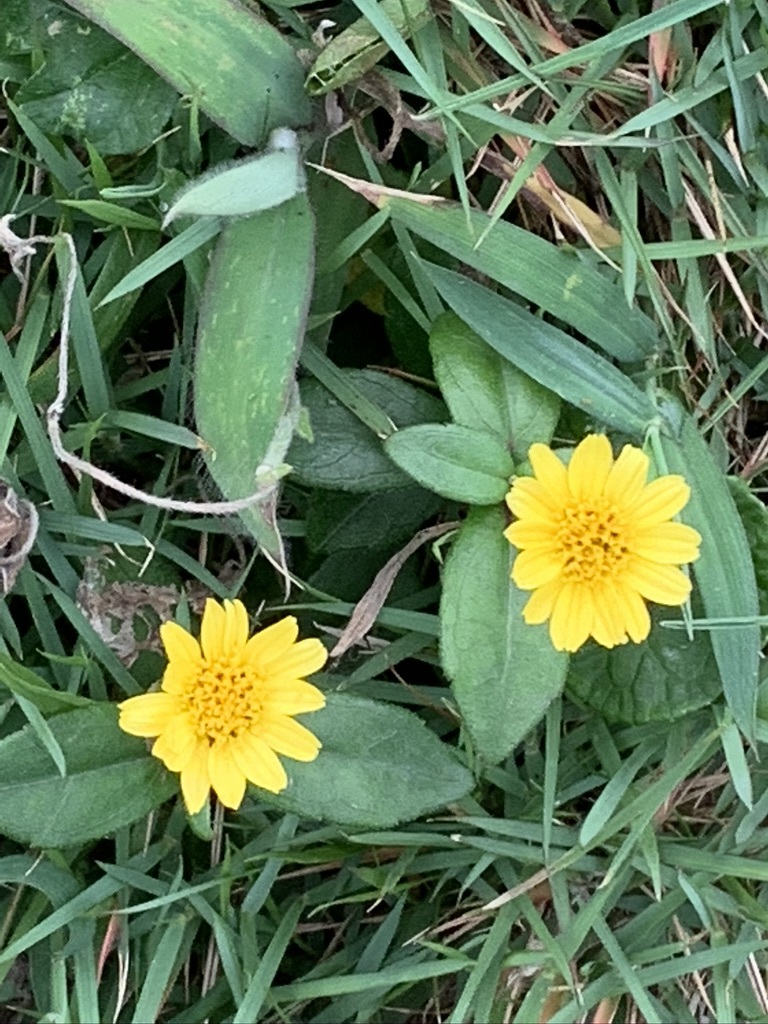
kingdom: Plantae
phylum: Tracheophyta
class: Magnoliopsida
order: Asterales
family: Asteraceae
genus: Sphagneticola
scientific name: Sphagneticola calendulacea
